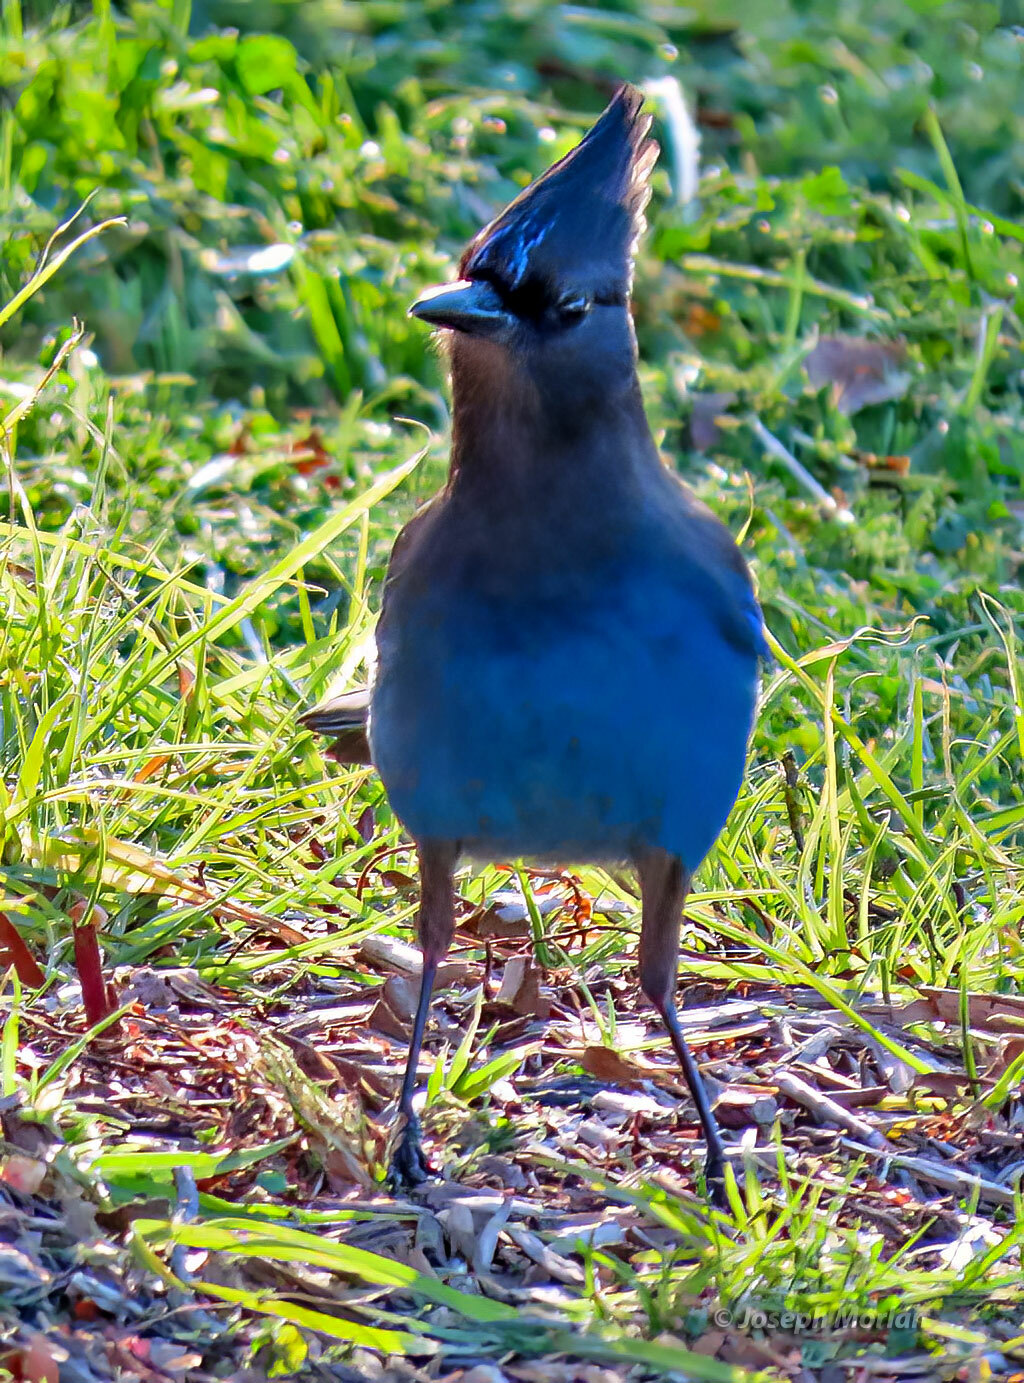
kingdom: Animalia
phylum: Chordata
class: Aves
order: Passeriformes
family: Corvidae
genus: Cyanocitta
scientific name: Cyanocitta stelleri
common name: Steller's jay
